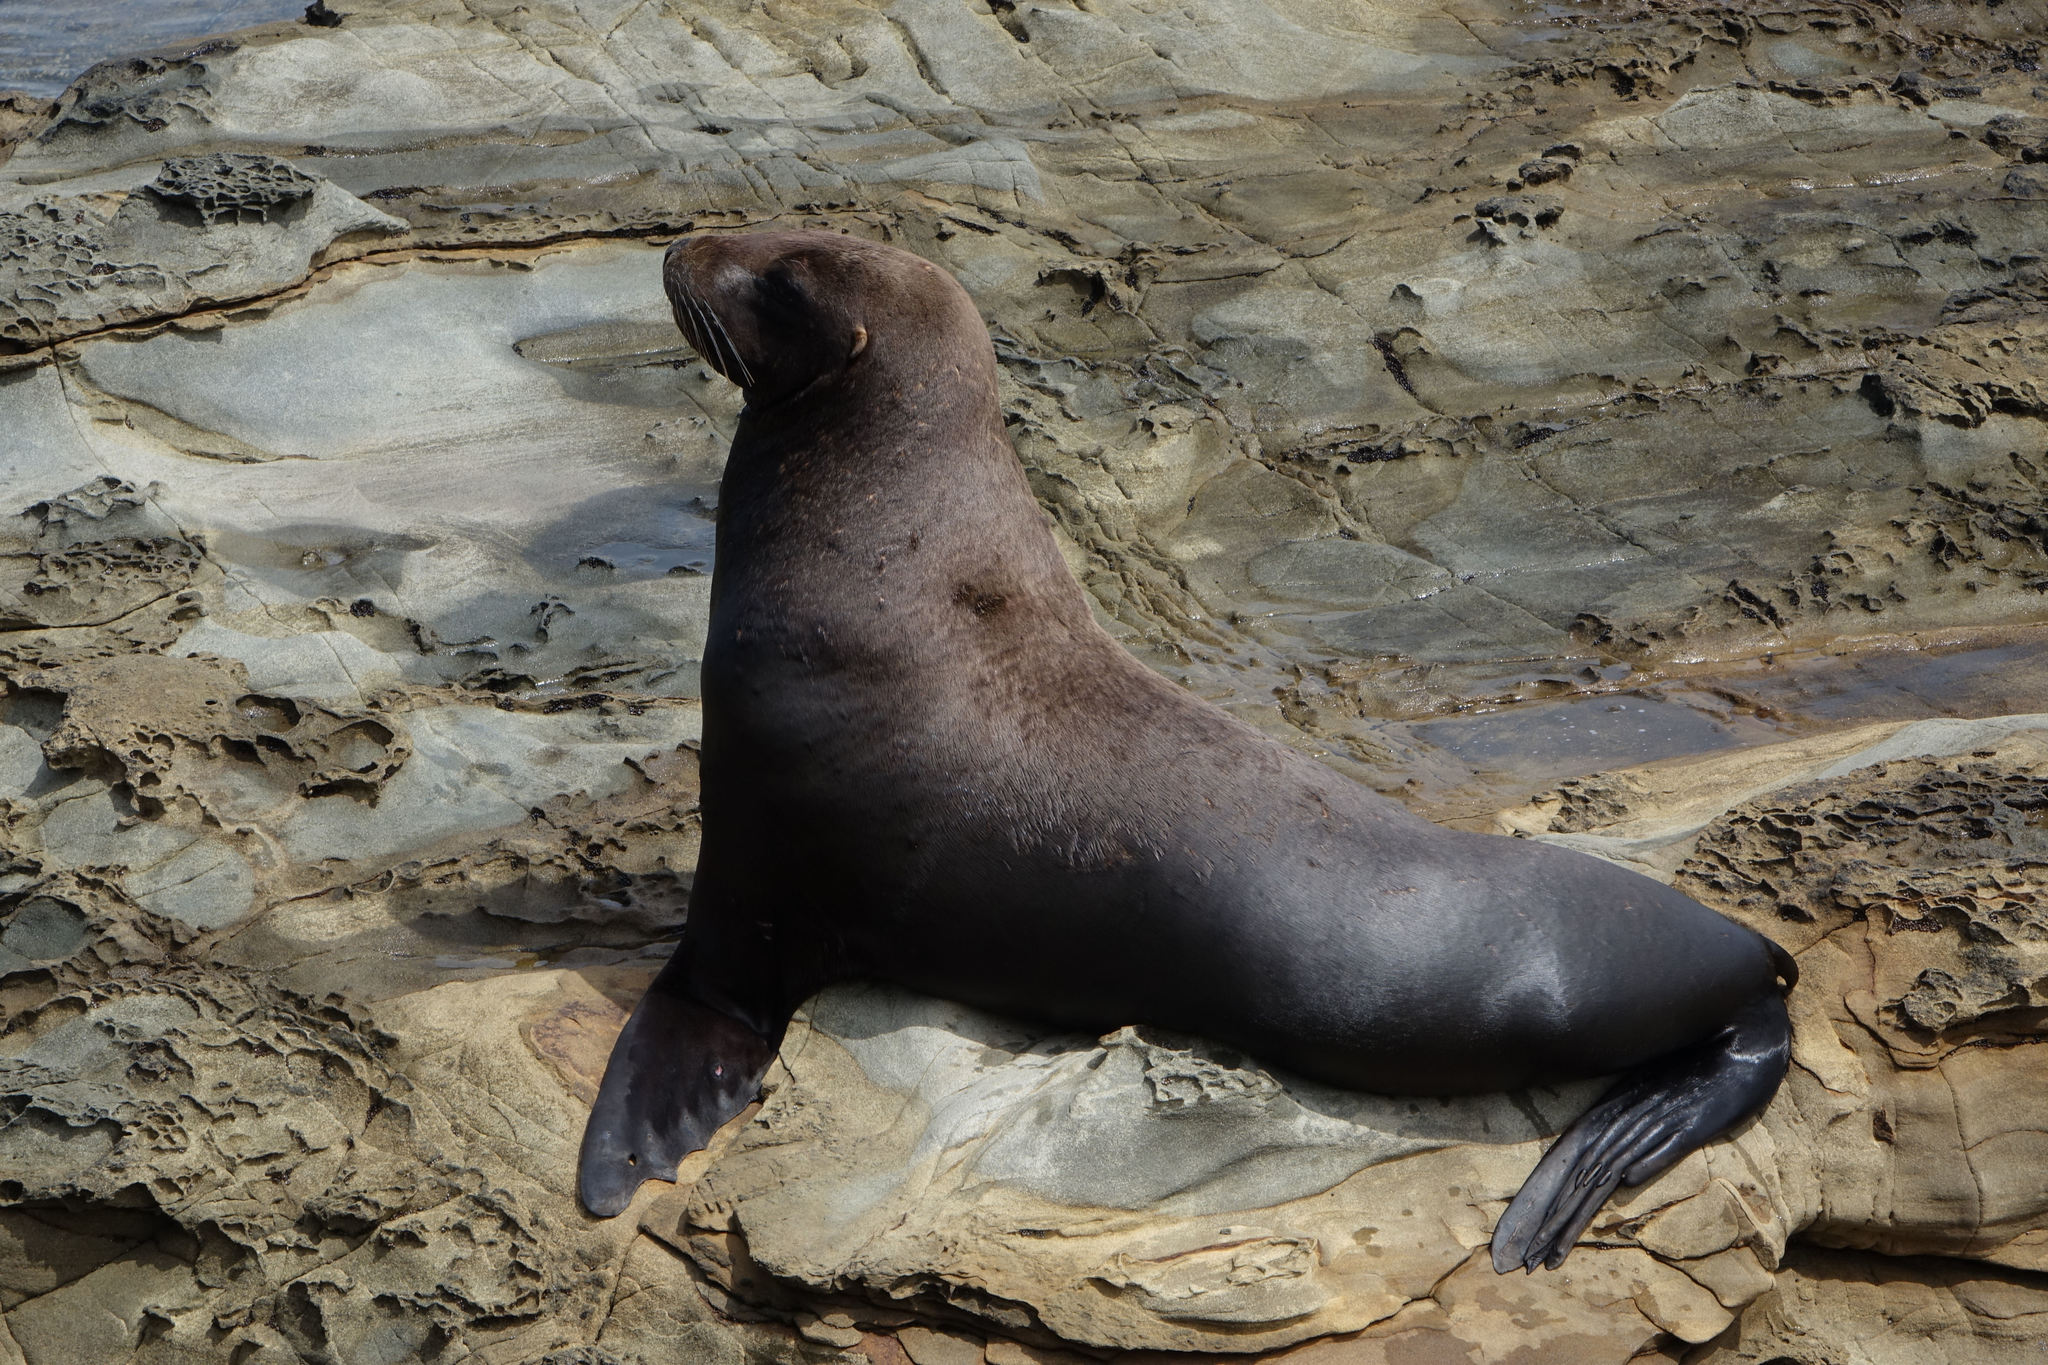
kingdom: Animalia
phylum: Chordata
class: Mammalia
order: Carnivora
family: Otariidae
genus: Phocarctos
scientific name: Phocarctos hookeri
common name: New zealand sea lion
